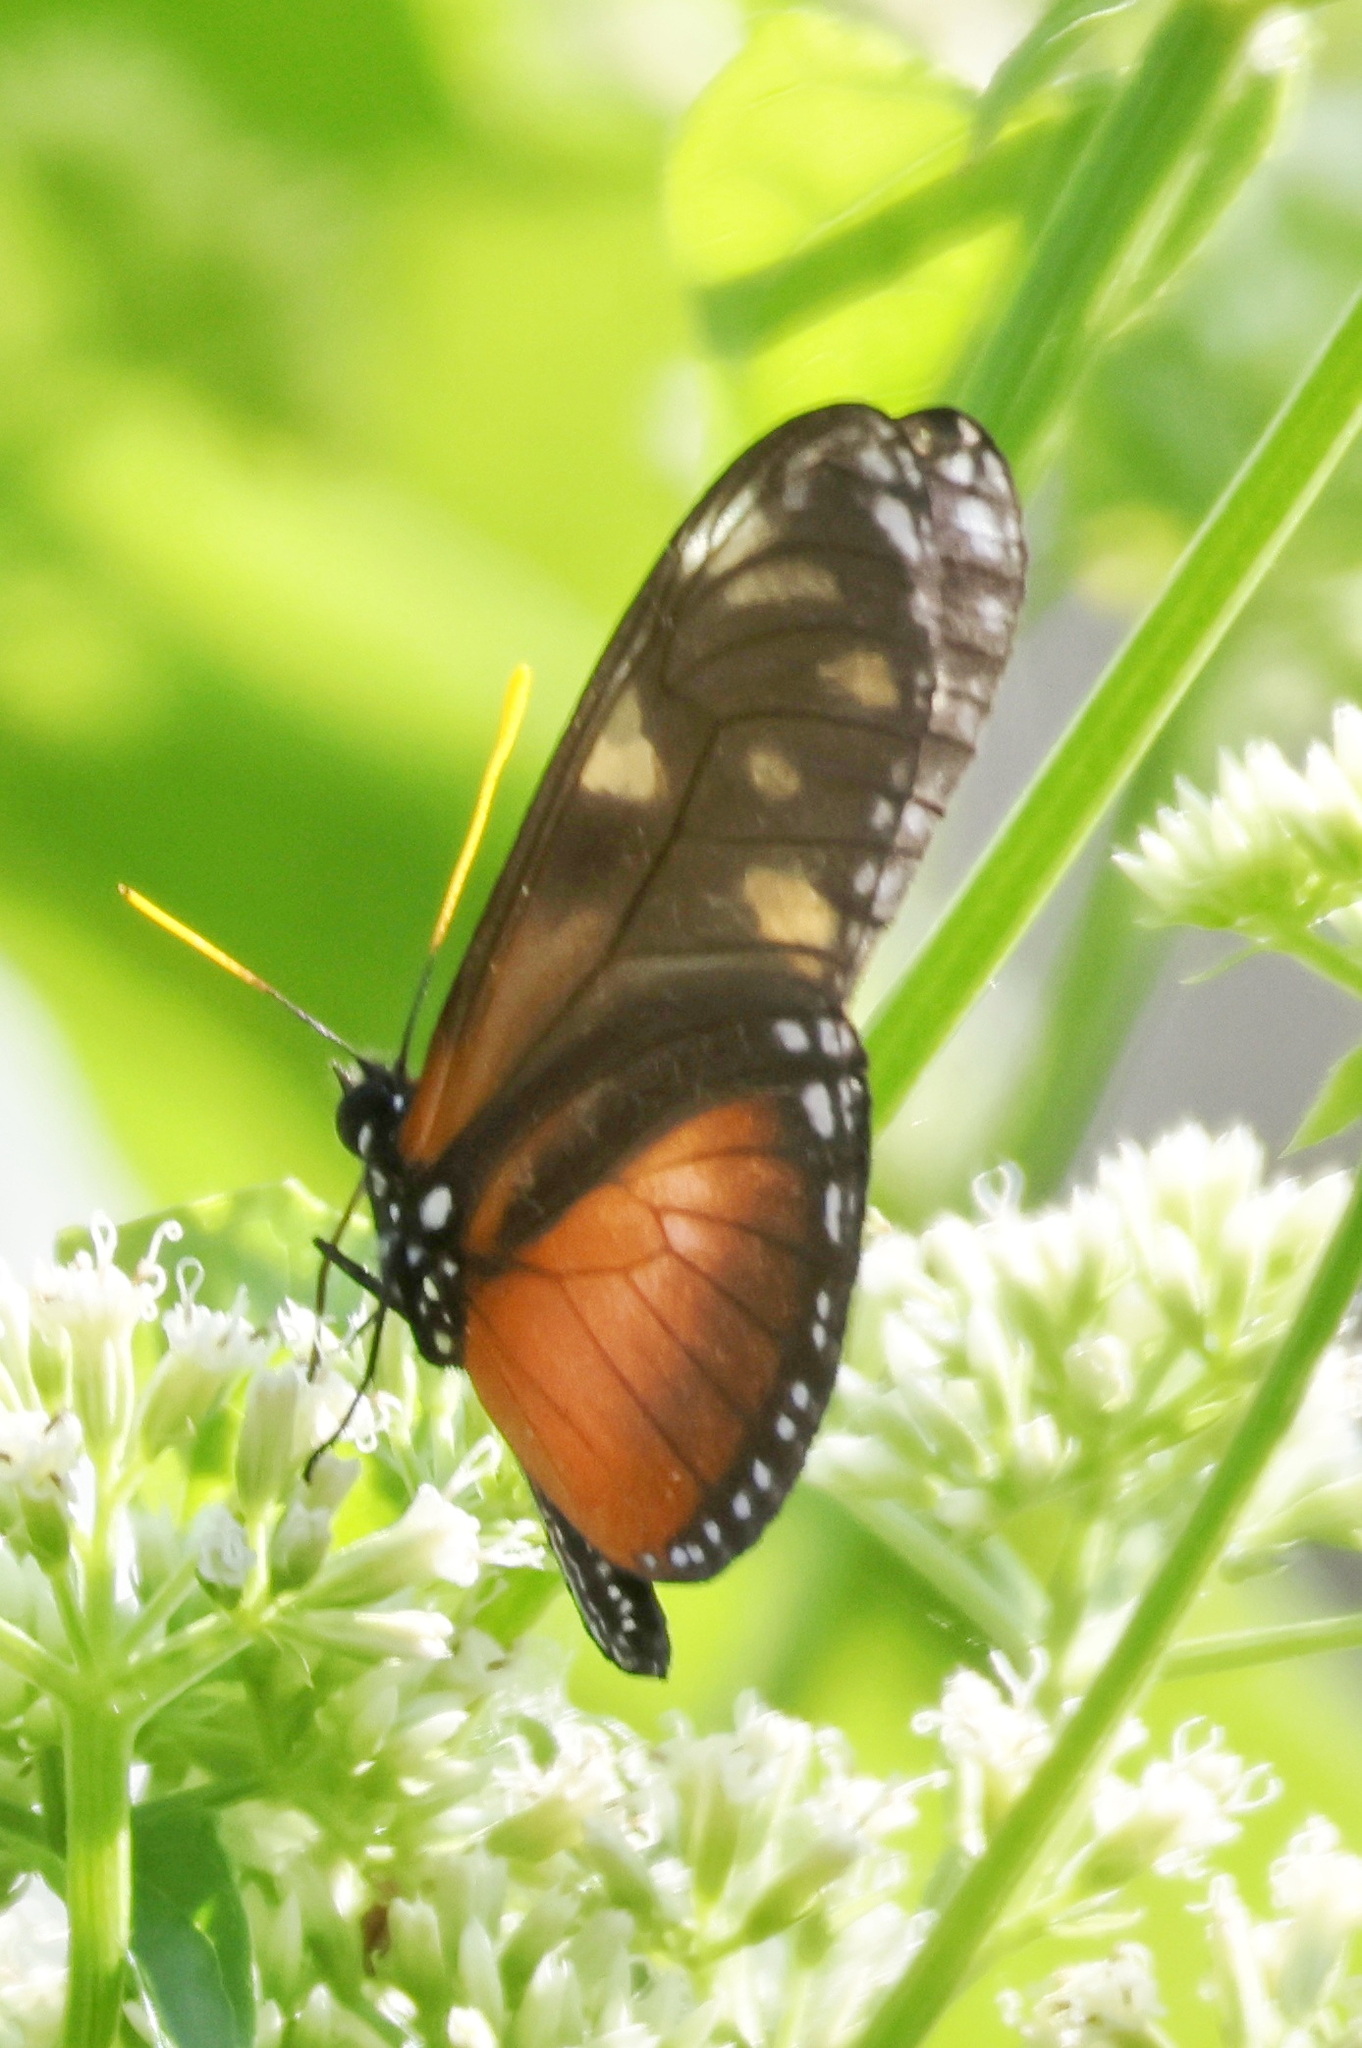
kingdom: Animalia
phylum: Arthropoda
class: Insecta
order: Lepidoptera
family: Nymphalidae
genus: Eueides
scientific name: Eueides procula
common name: Nonpassionate heliconian
